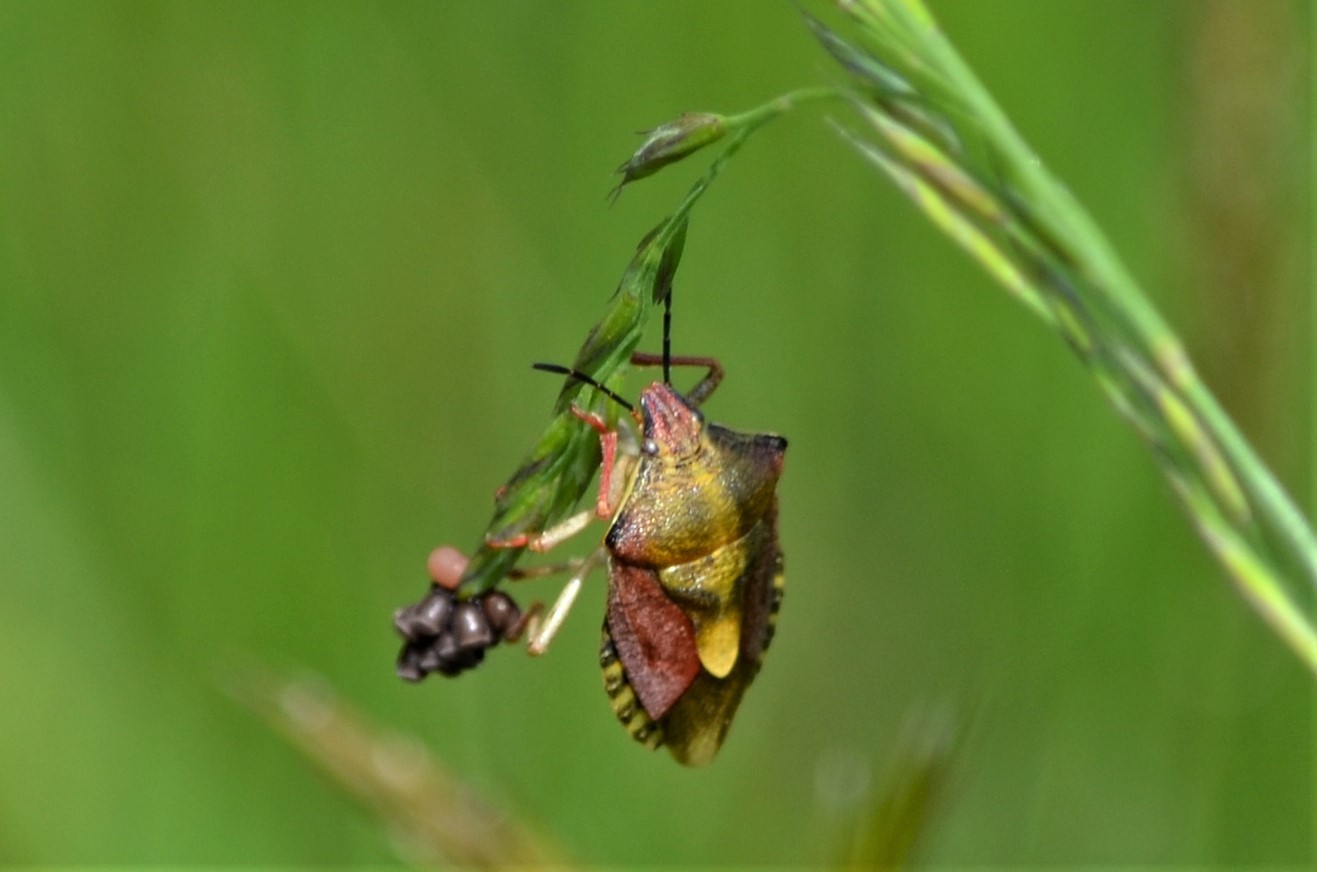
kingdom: Animalia
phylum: Arthropoda
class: Insecta
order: Hemiptera
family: Pentatomidae
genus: Carpocoris
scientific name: Carpocoris purpureipennis
